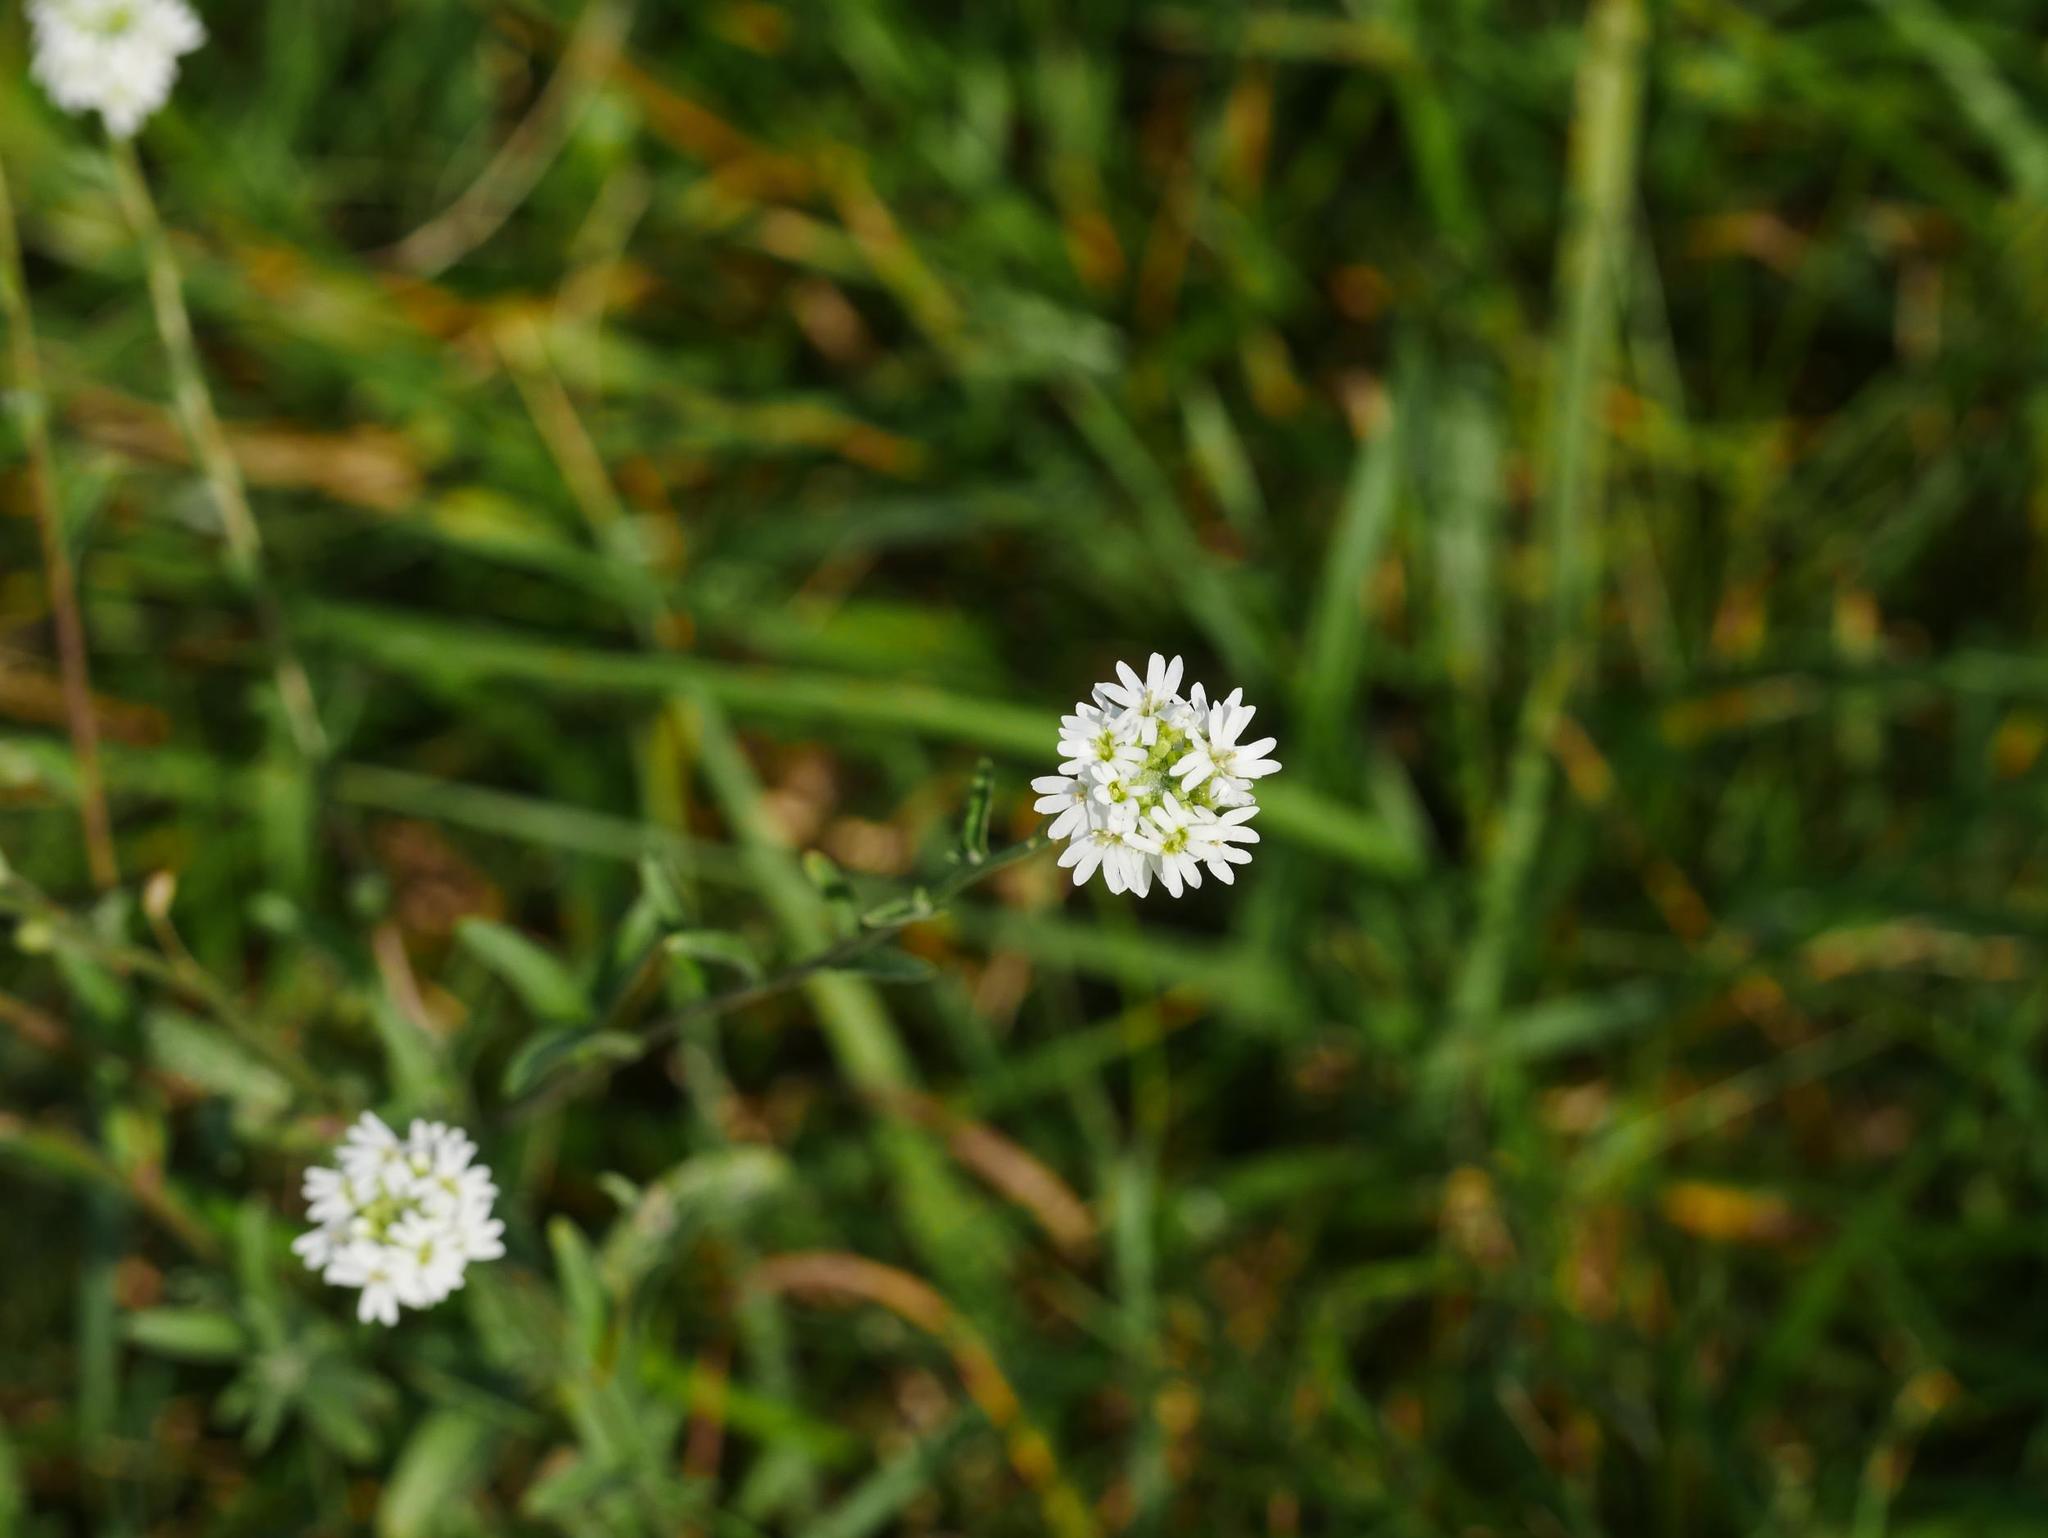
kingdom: Plantae
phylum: Tracheophyta
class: Magnoliopsida
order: Brassicales
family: Brassicaceae
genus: Berteroa
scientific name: Berteroa incana
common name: Hoary alison
